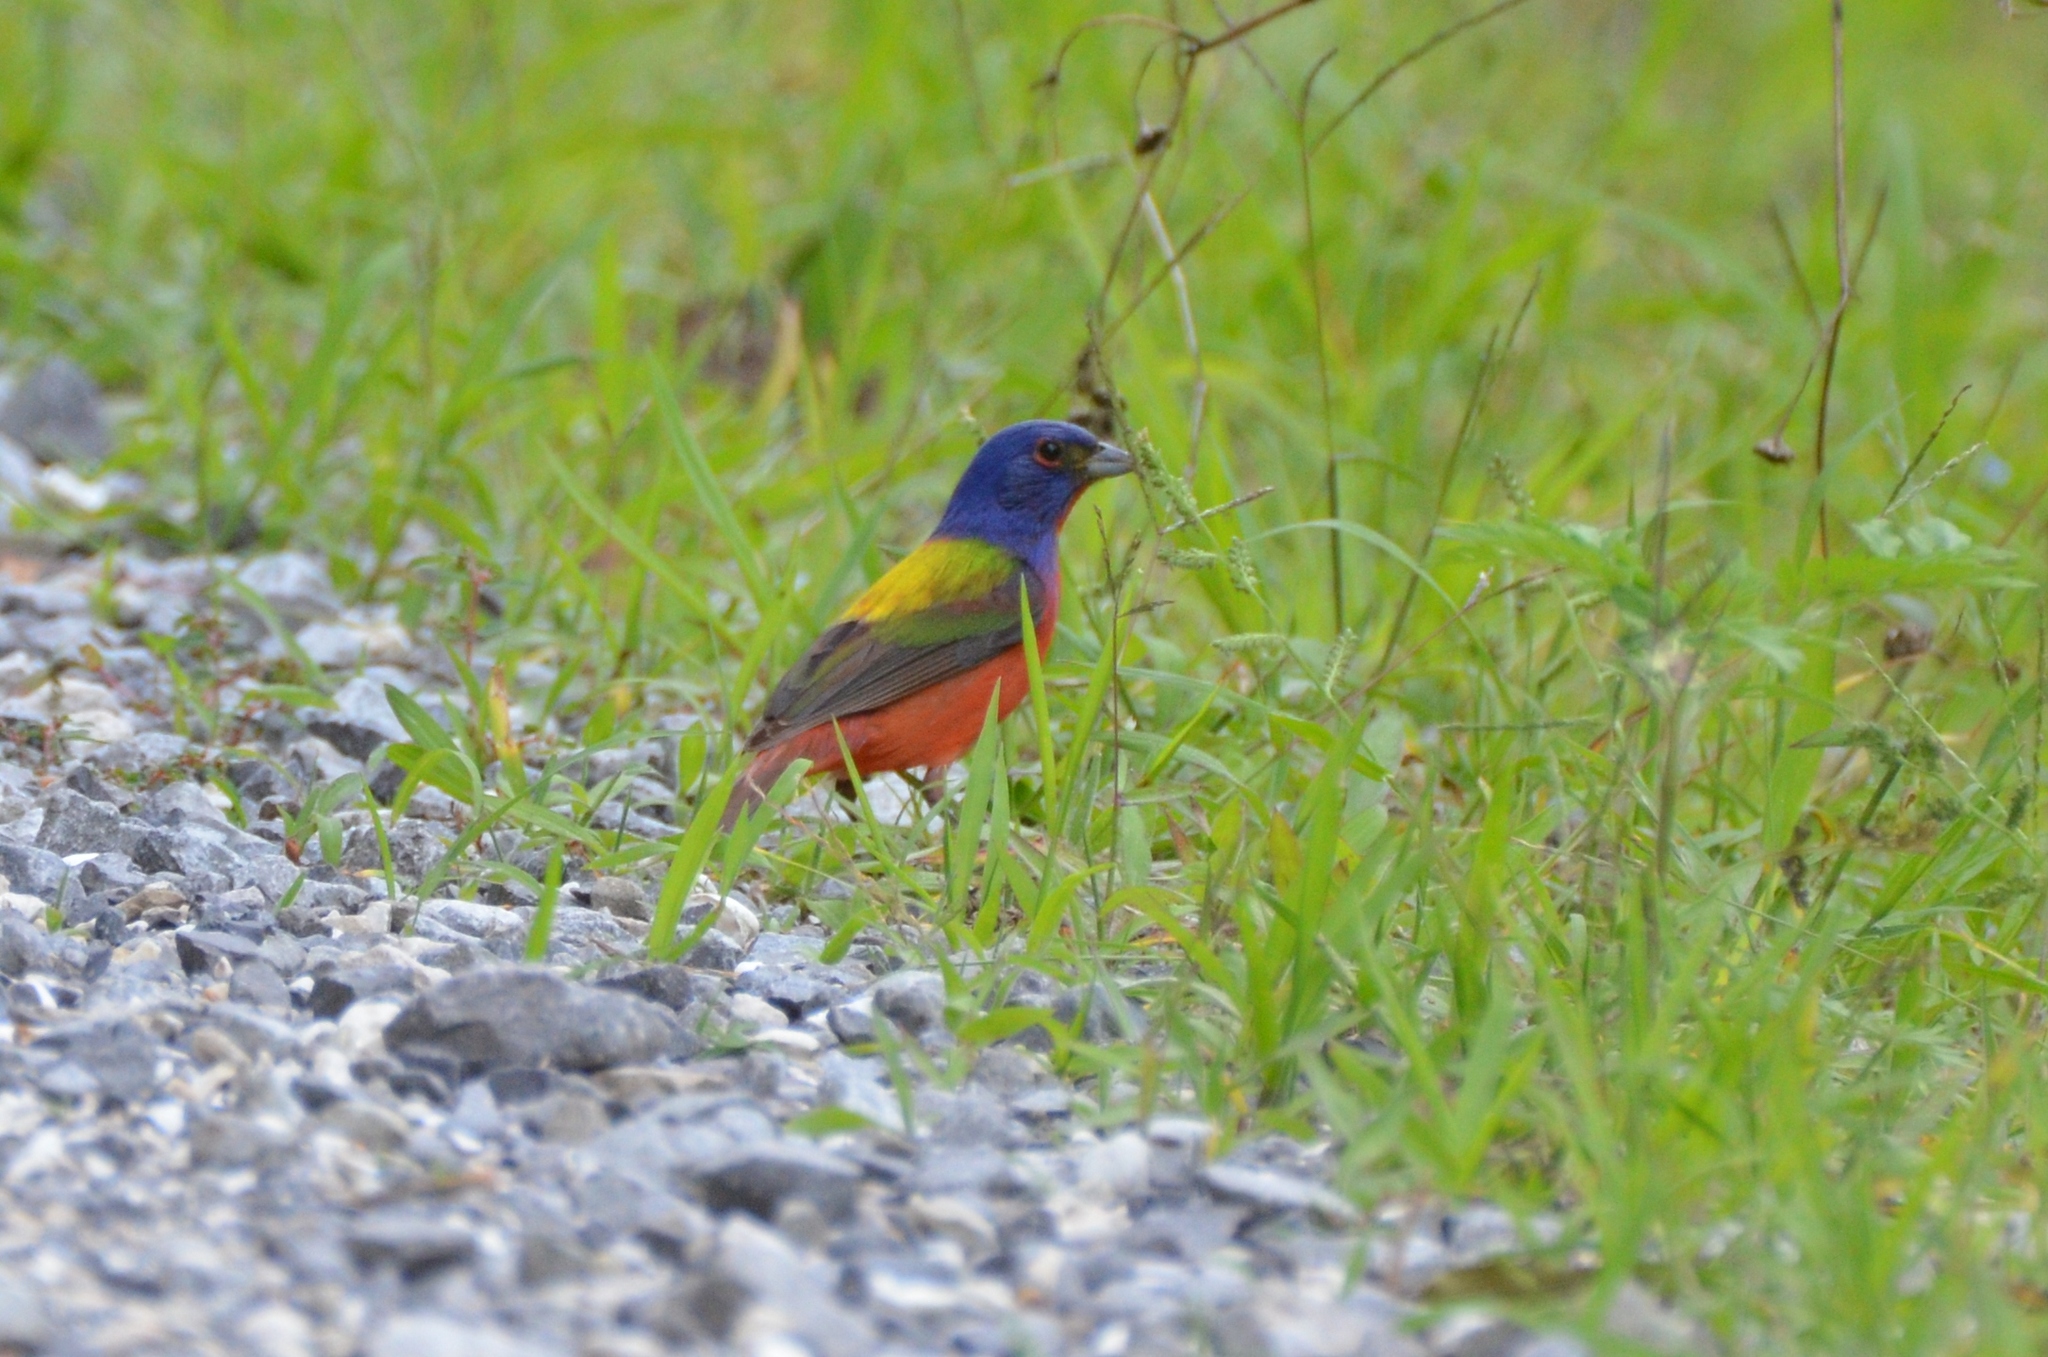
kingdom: Animalia
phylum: Chordata
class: Aves
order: Passeriformes
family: Cardinalidae
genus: Passerina
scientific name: Passerina ciris
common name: Painted bunting
